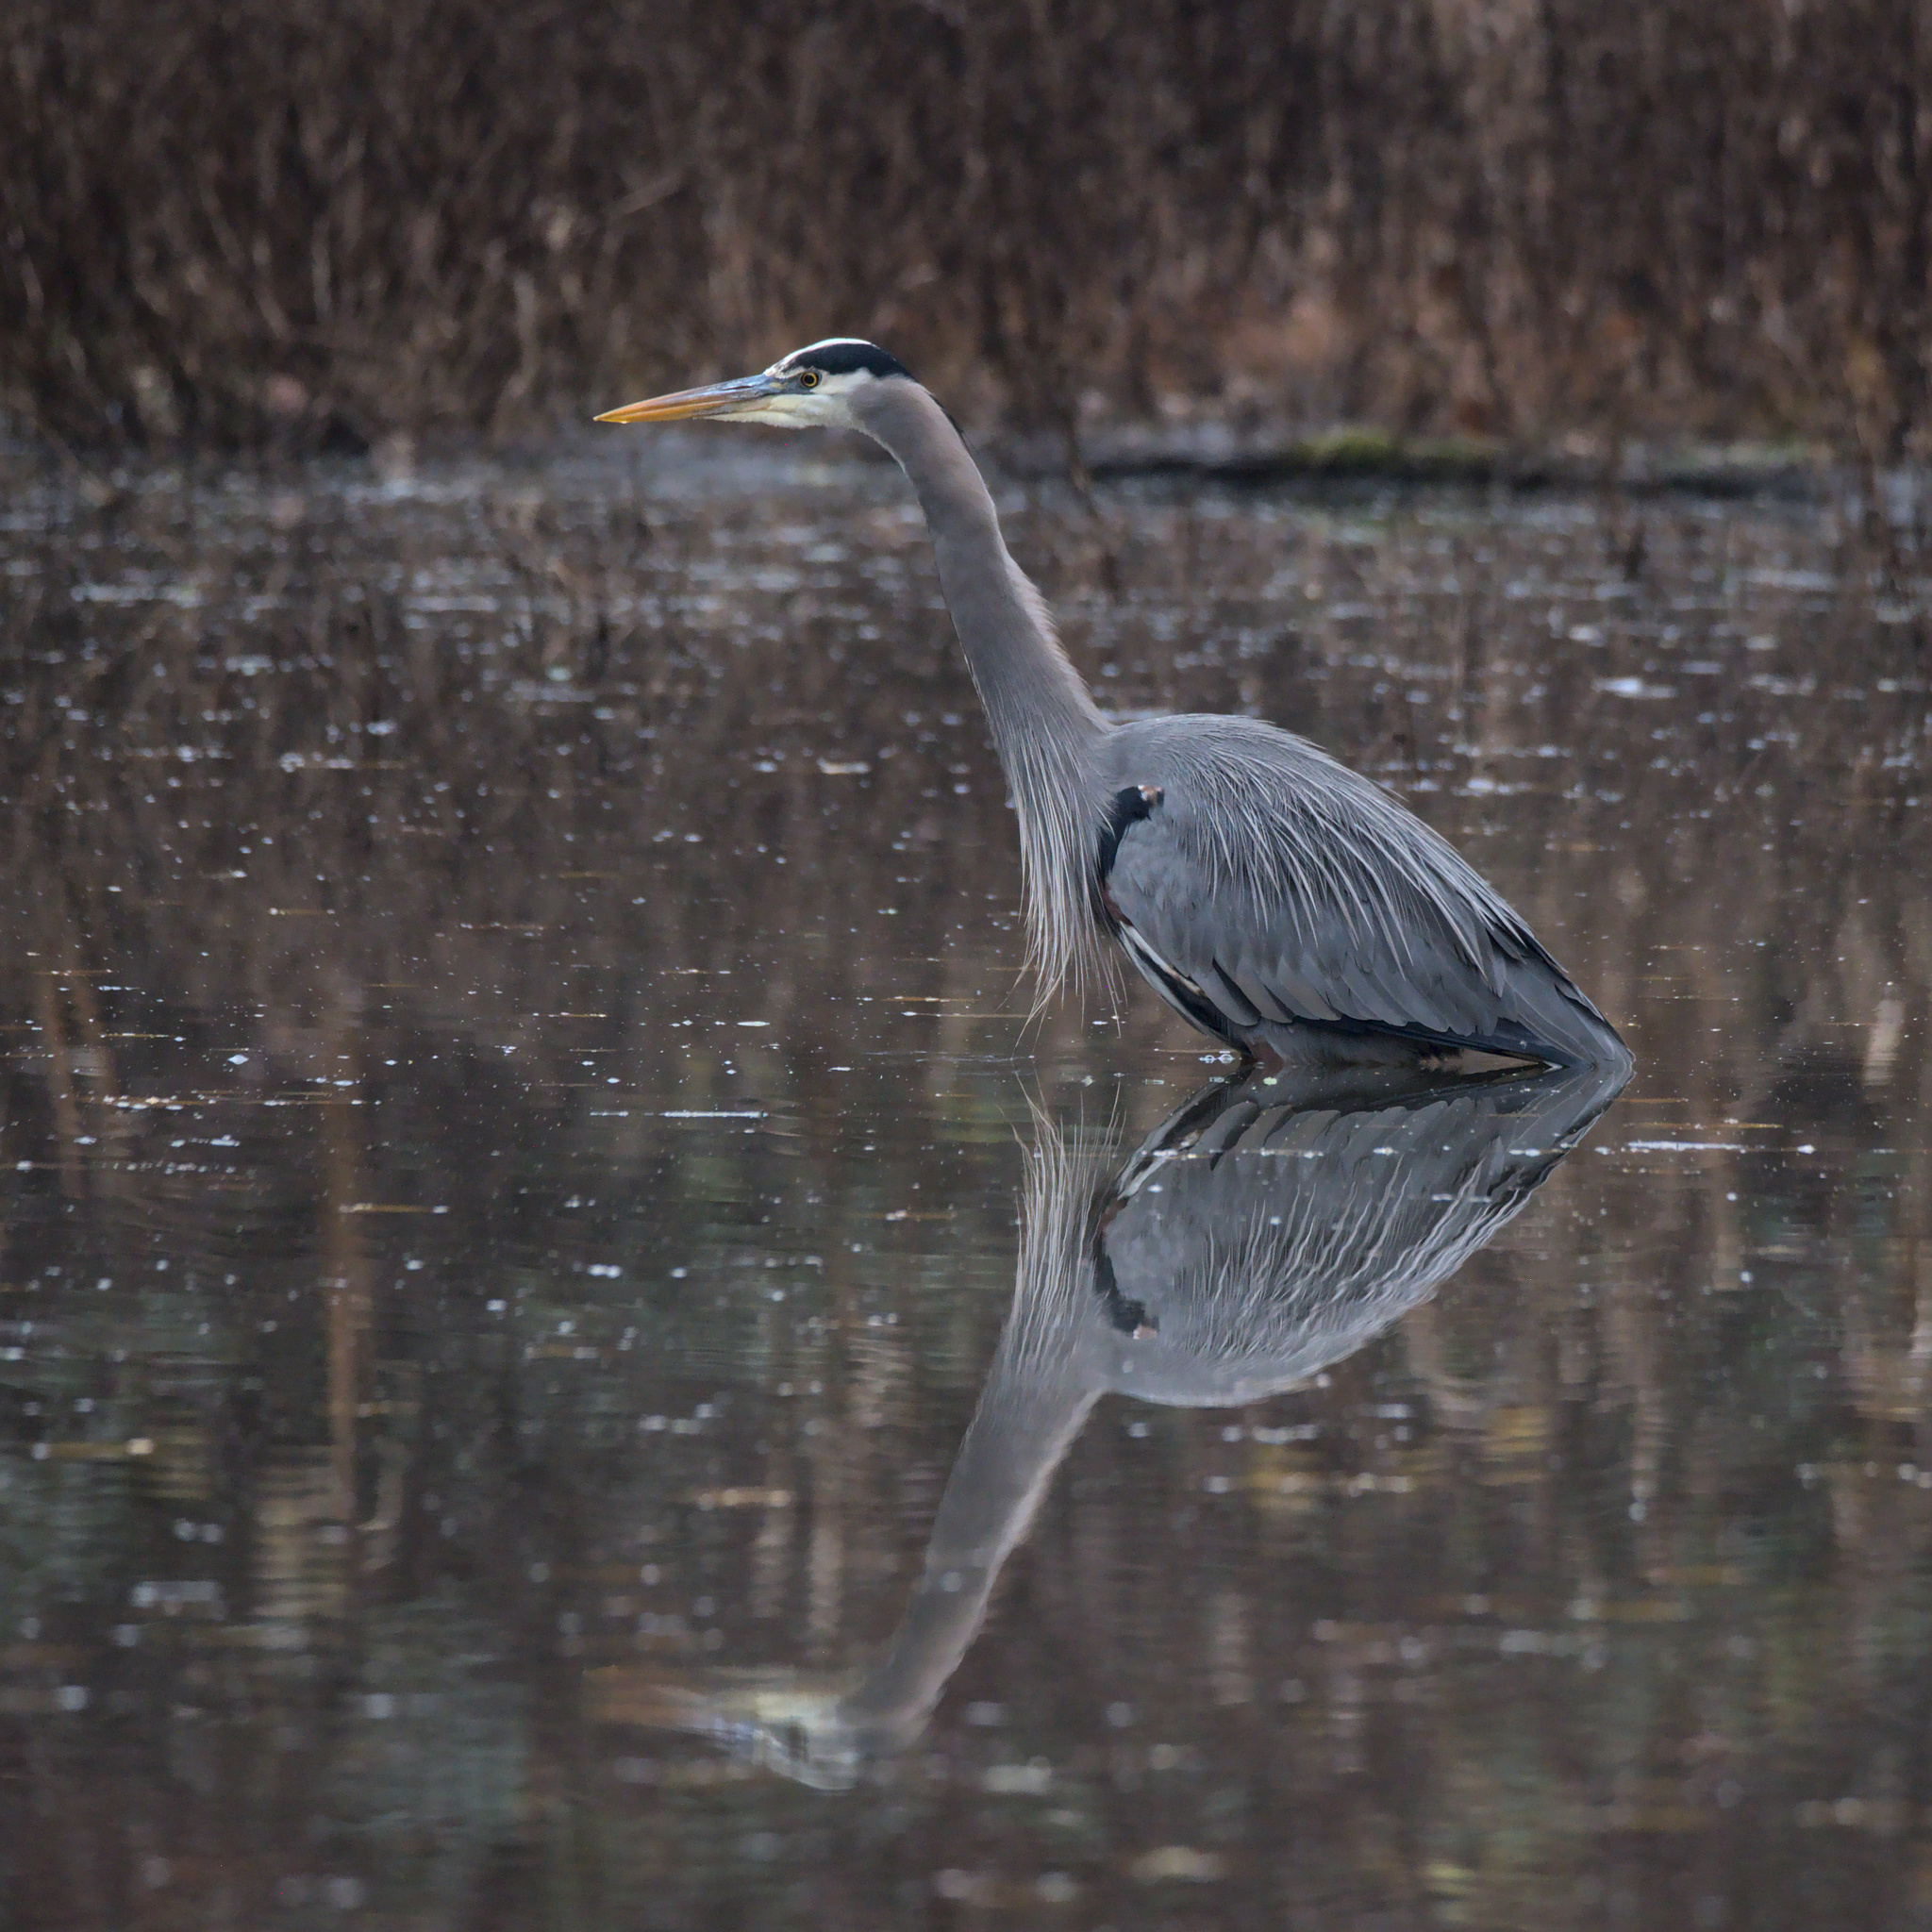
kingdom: Animalia
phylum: Chordata
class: Aves
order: Pelecaniformes
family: Ardeidae
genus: Ardea
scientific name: Ardea herodias
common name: Great blue heron
